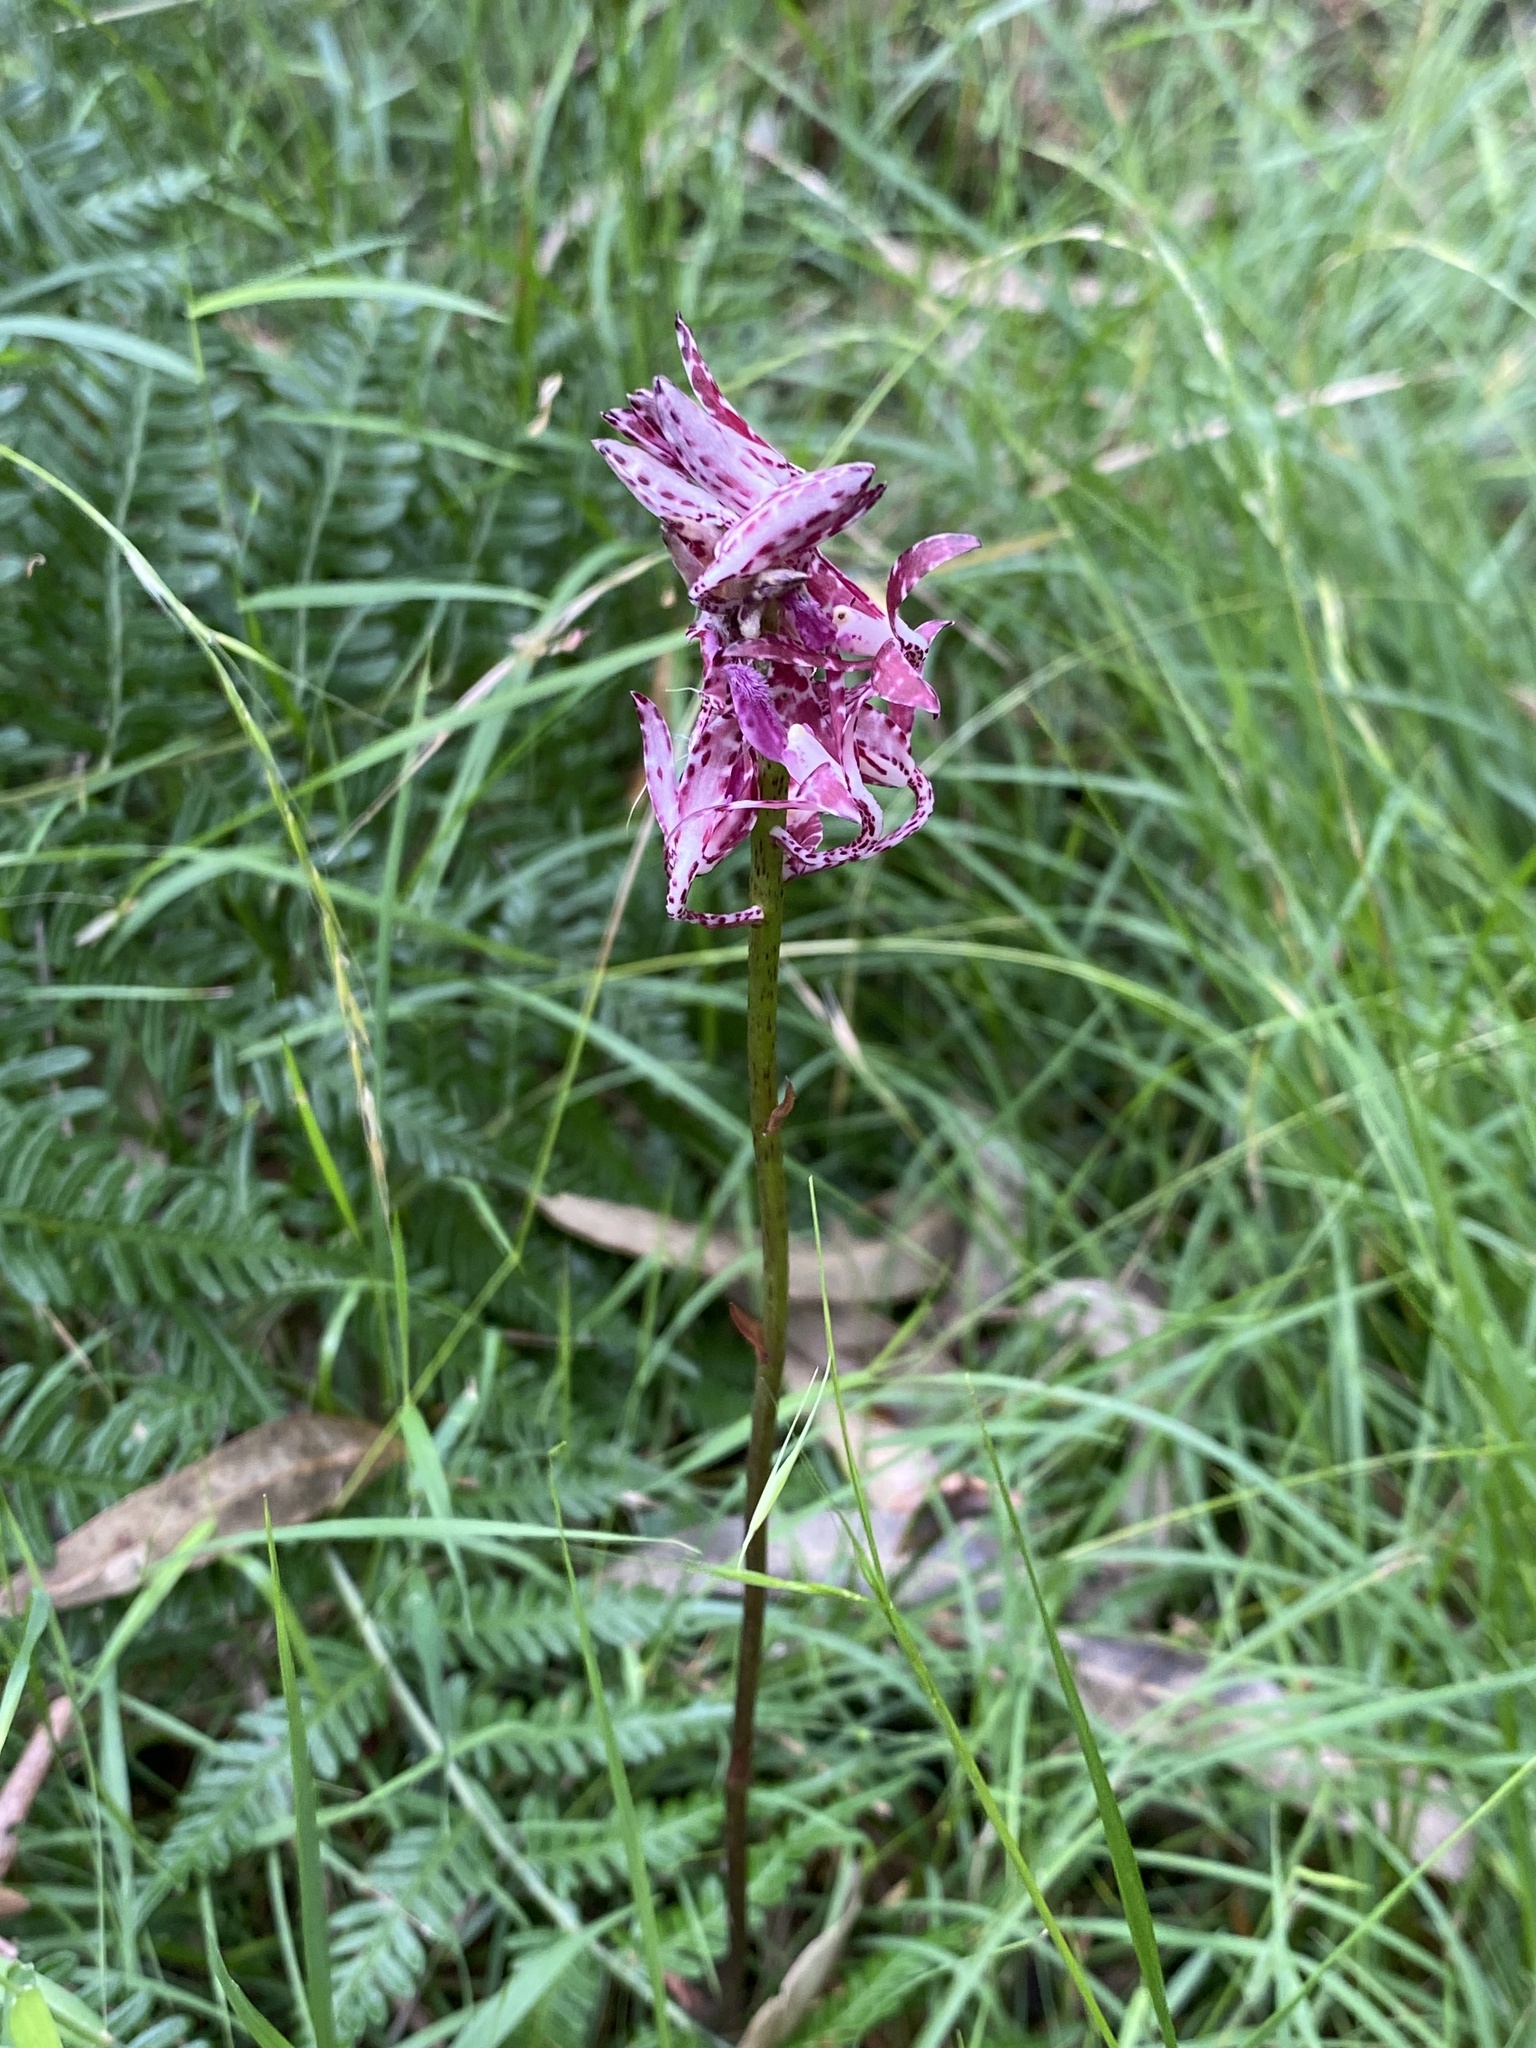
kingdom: Plantae
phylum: Tracheophyta
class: Liliopsida
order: Asparagales
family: Orchidaceae
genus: Dipodium
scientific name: Dipodium variegatum
